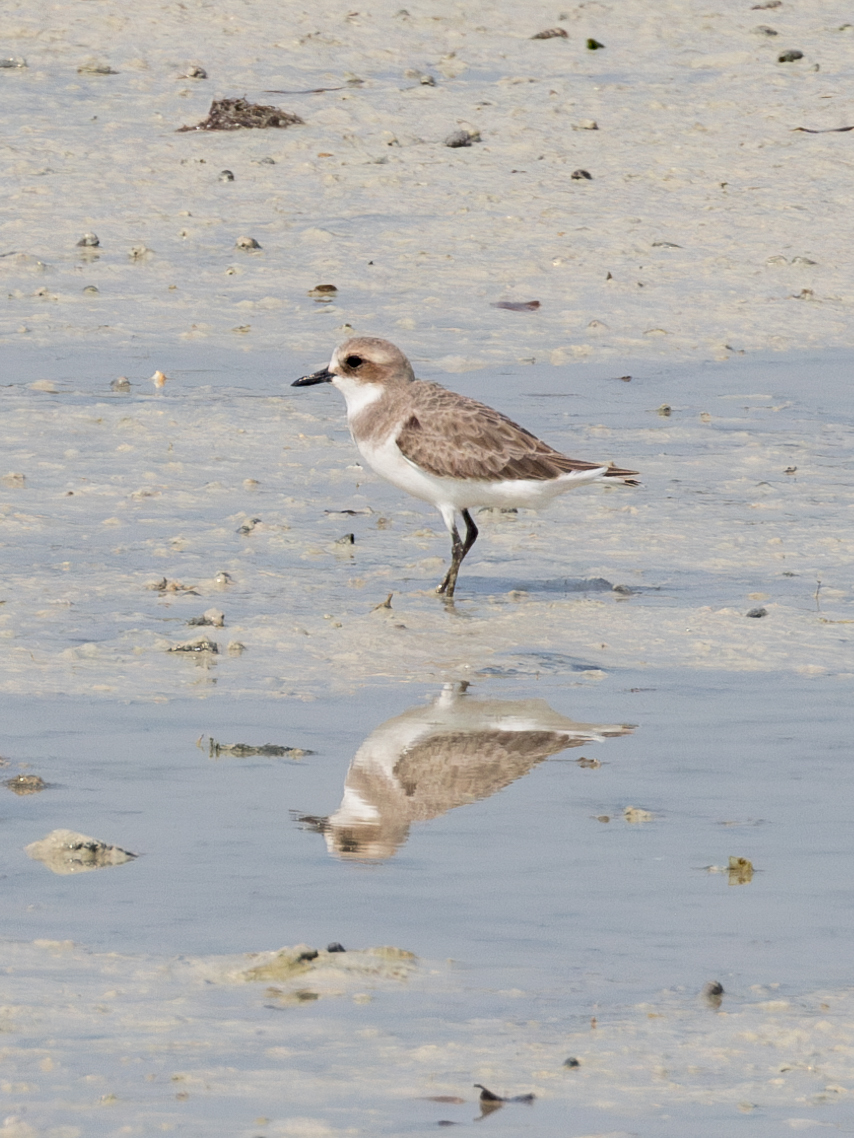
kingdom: Animalia
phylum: Chordata
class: Aves
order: Charadriiformes
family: Charadriidae
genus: Charadrius
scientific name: Charadrius leschenaultii
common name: Greater sand plover
